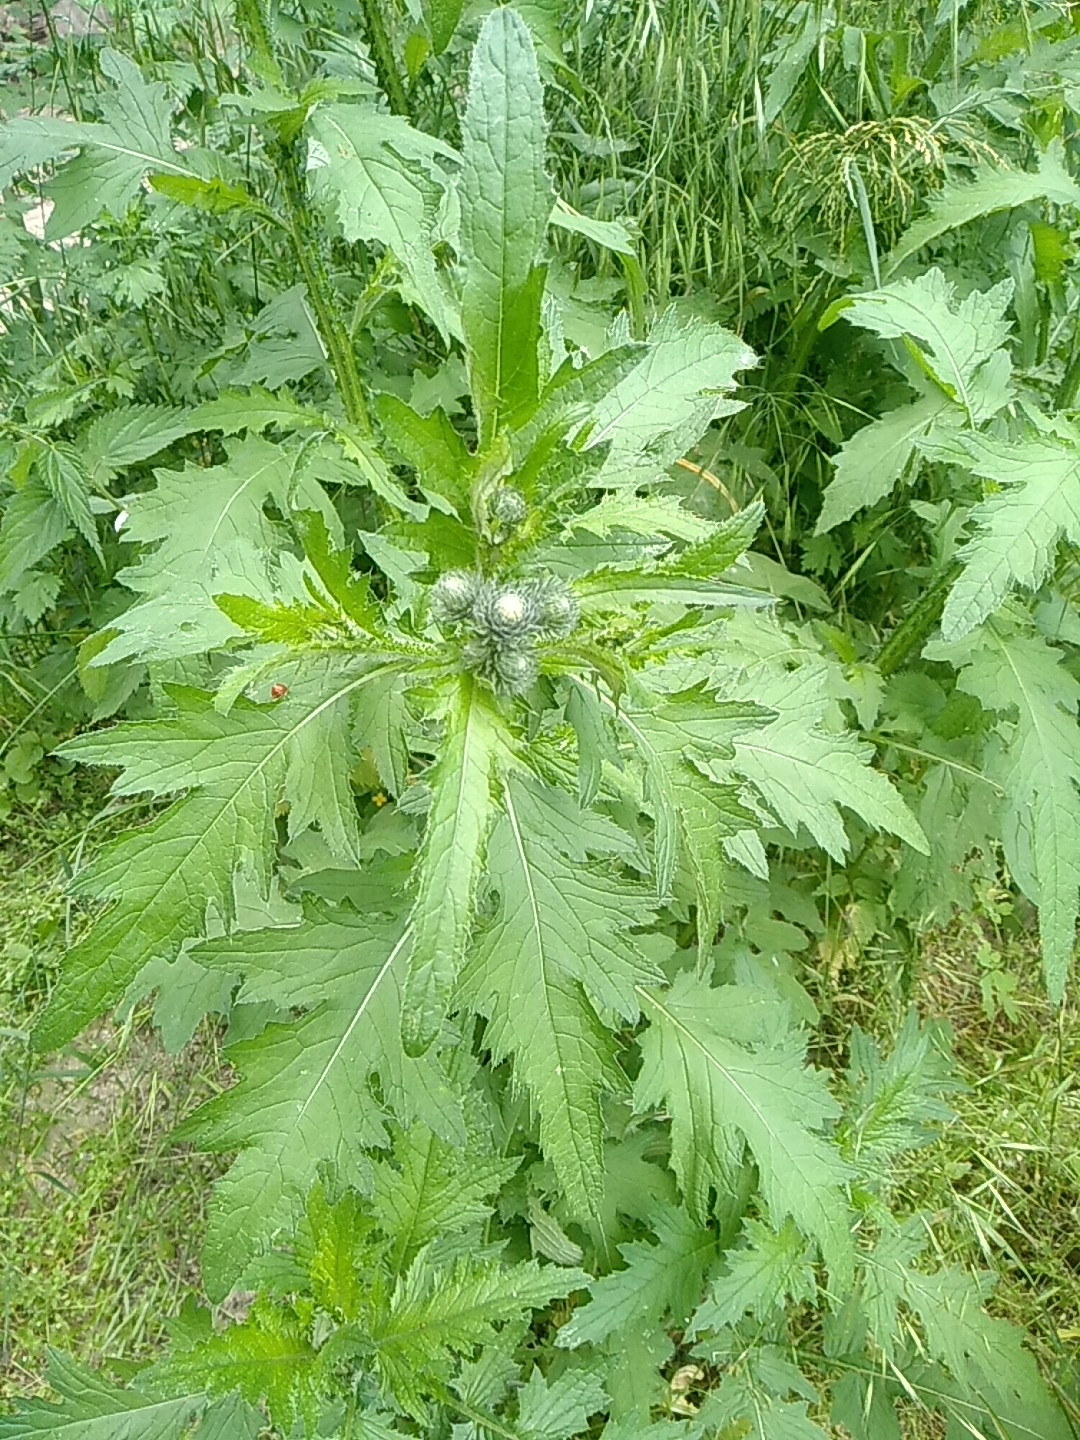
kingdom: Plantae
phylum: Tracheophyta
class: Magnoliopsida
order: Asterales
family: Asteraceae
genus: Carduus
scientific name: Carduus crispus
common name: Welted thistle
